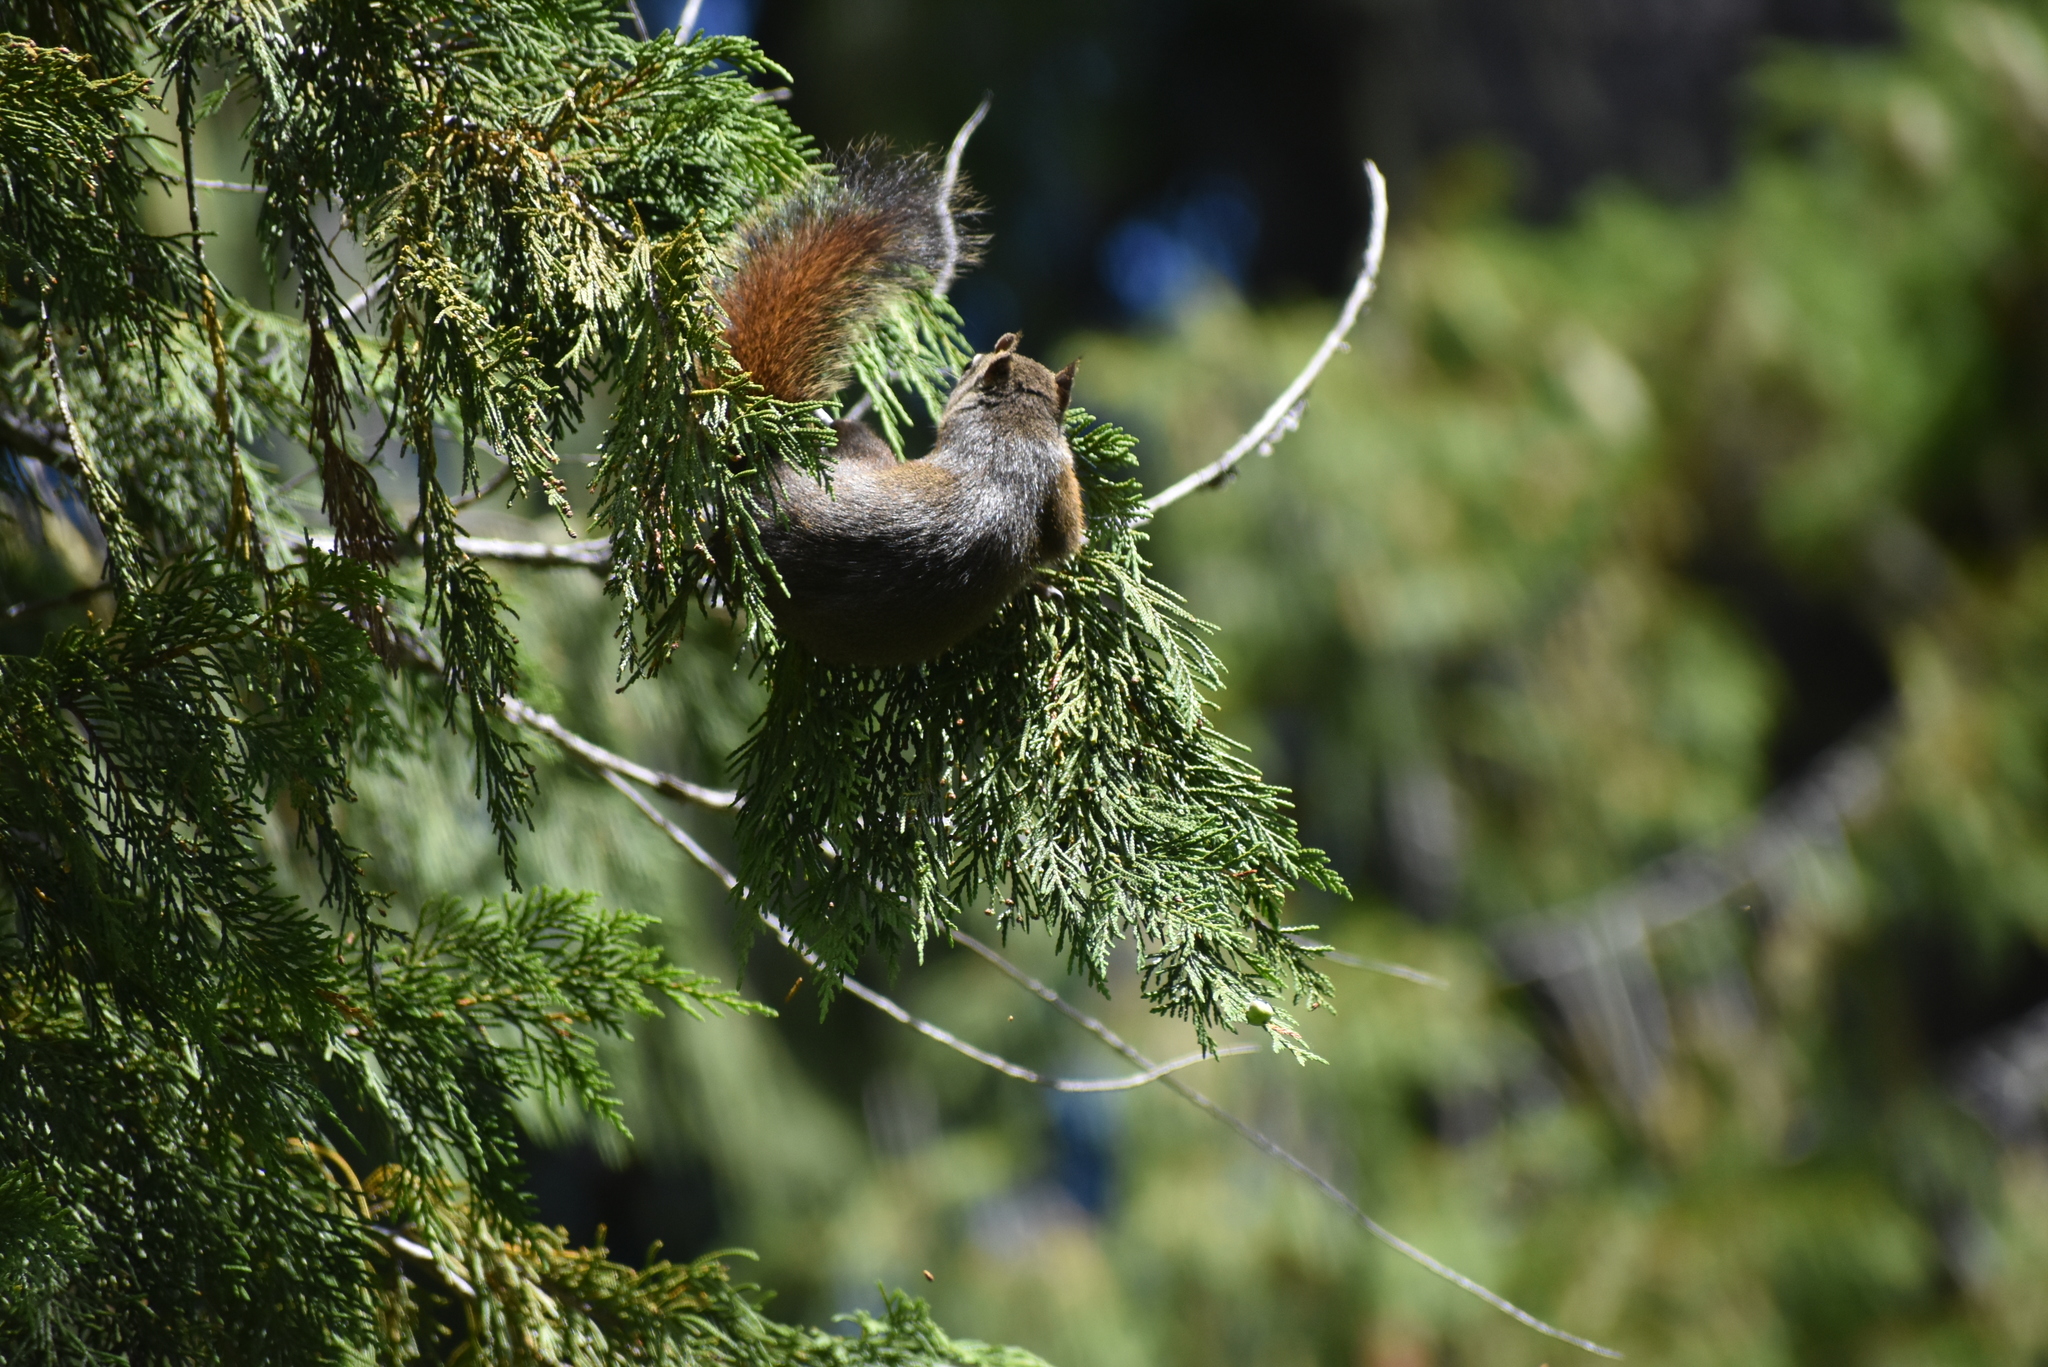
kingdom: Animalia
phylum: Chordata
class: Mammalia
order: Rodentia
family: Sciuridae
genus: Tamiasciurus
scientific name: Tamiasciurus hudsonicus
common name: Red squirrel
